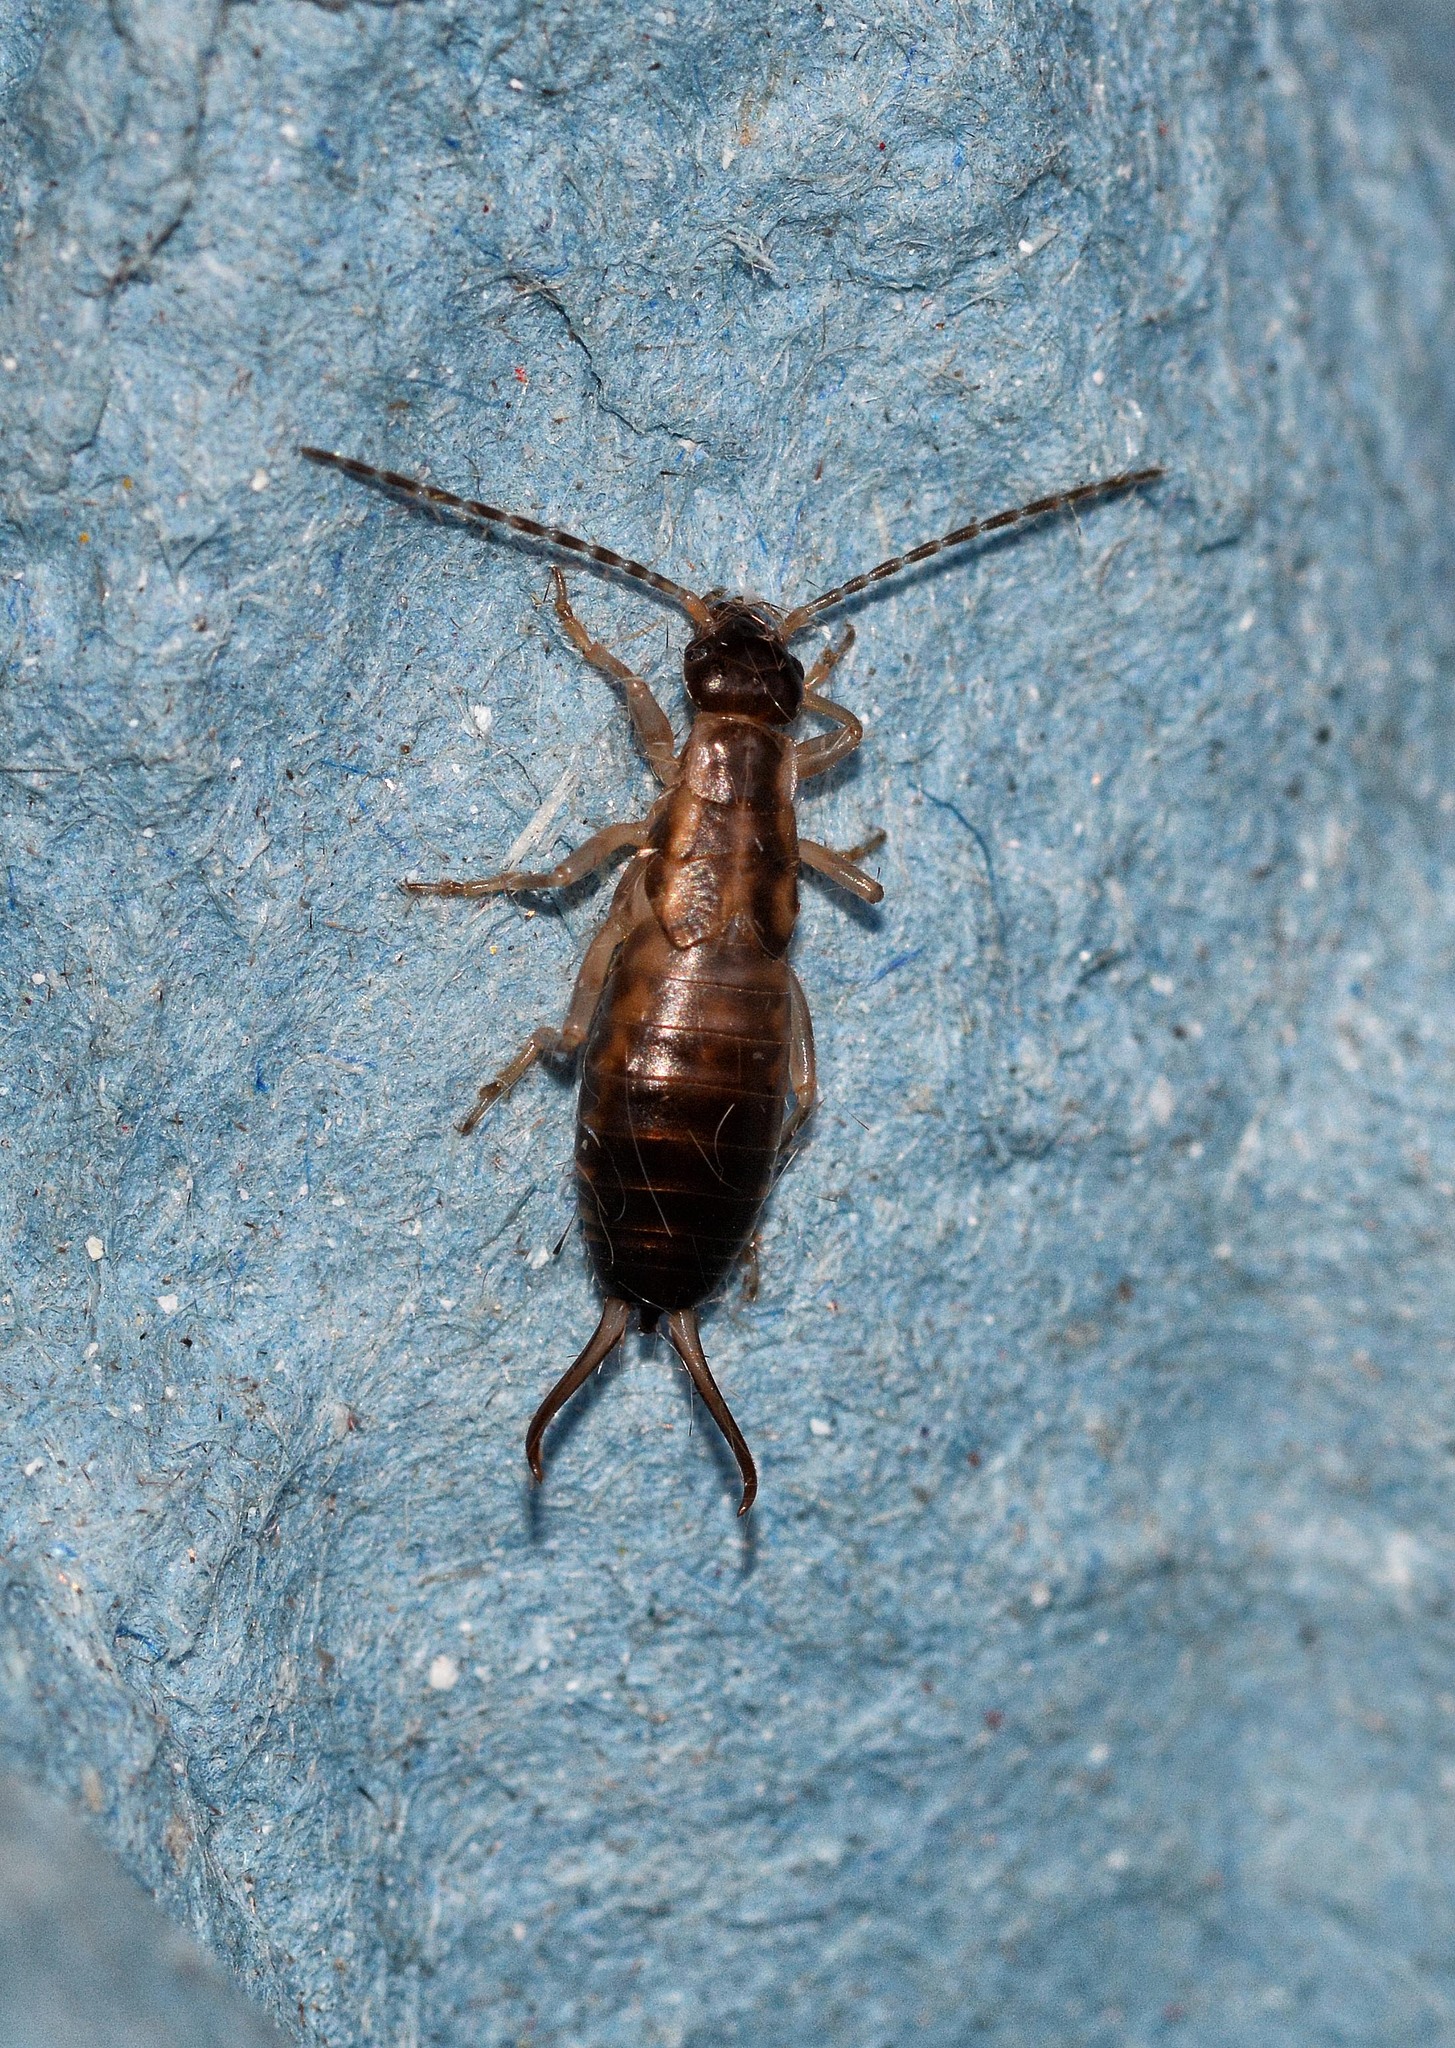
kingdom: Animalia
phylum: Arthropoda
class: Insecta
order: Dermaptera
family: Forficulidae
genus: Forficula
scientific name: Forficula dentata
